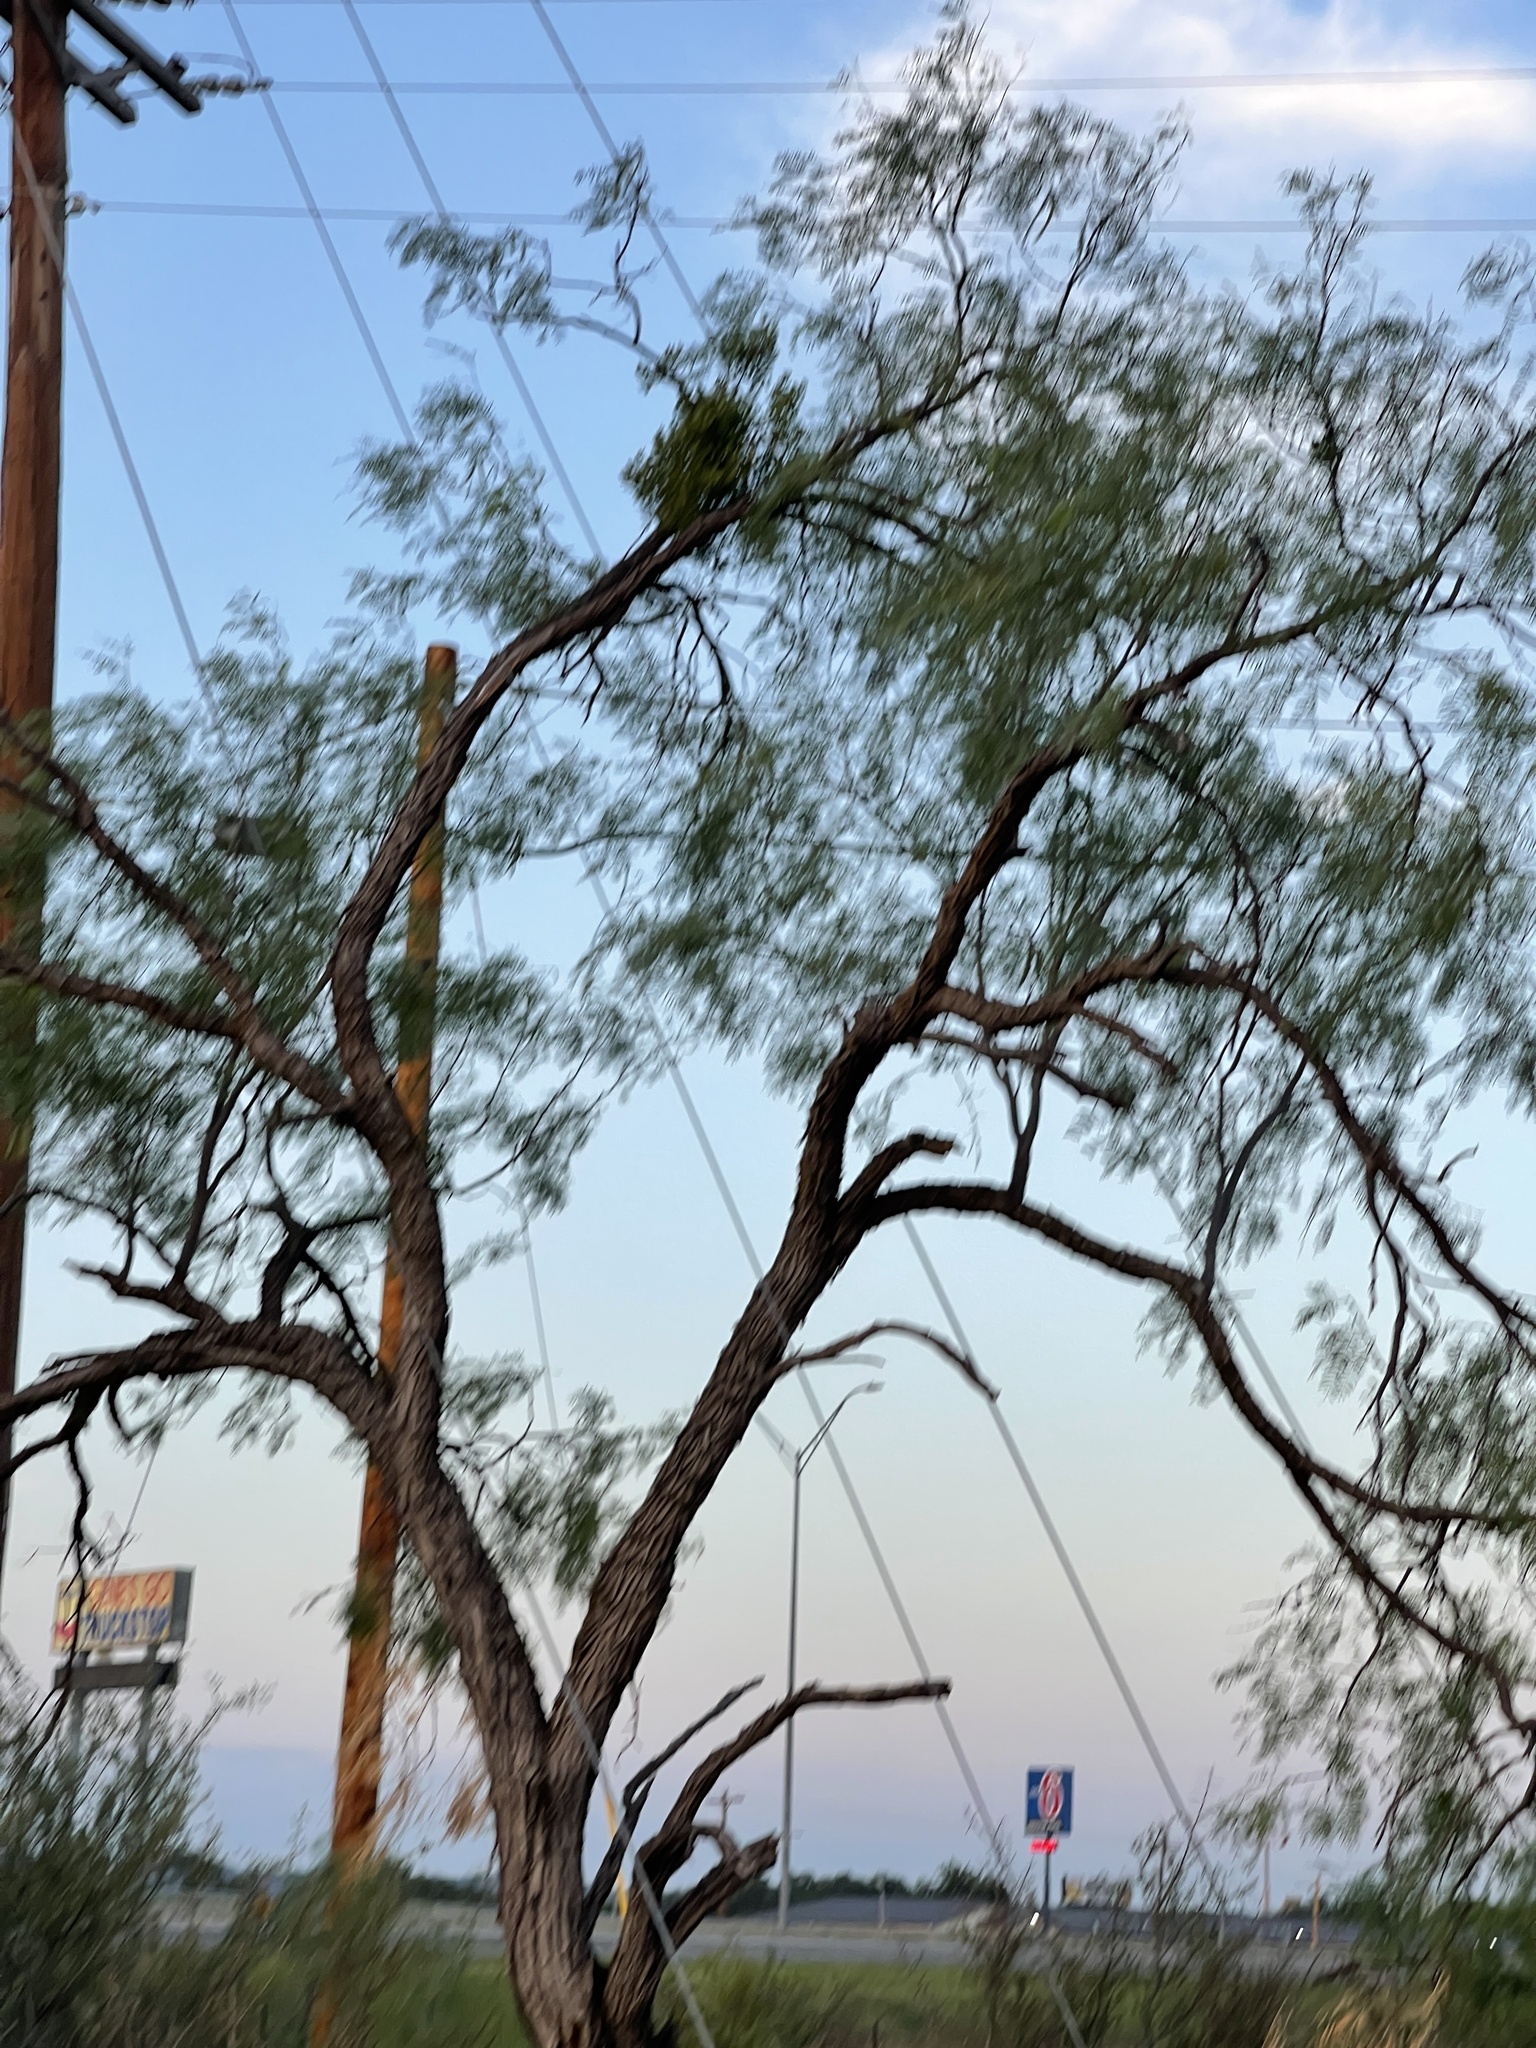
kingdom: Plantae
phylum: Tracheophyta
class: Magnoliopsida
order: Fabales
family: Fabaceae
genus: Prosopis
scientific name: Prosopis glandulosa
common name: Honey mesquite
